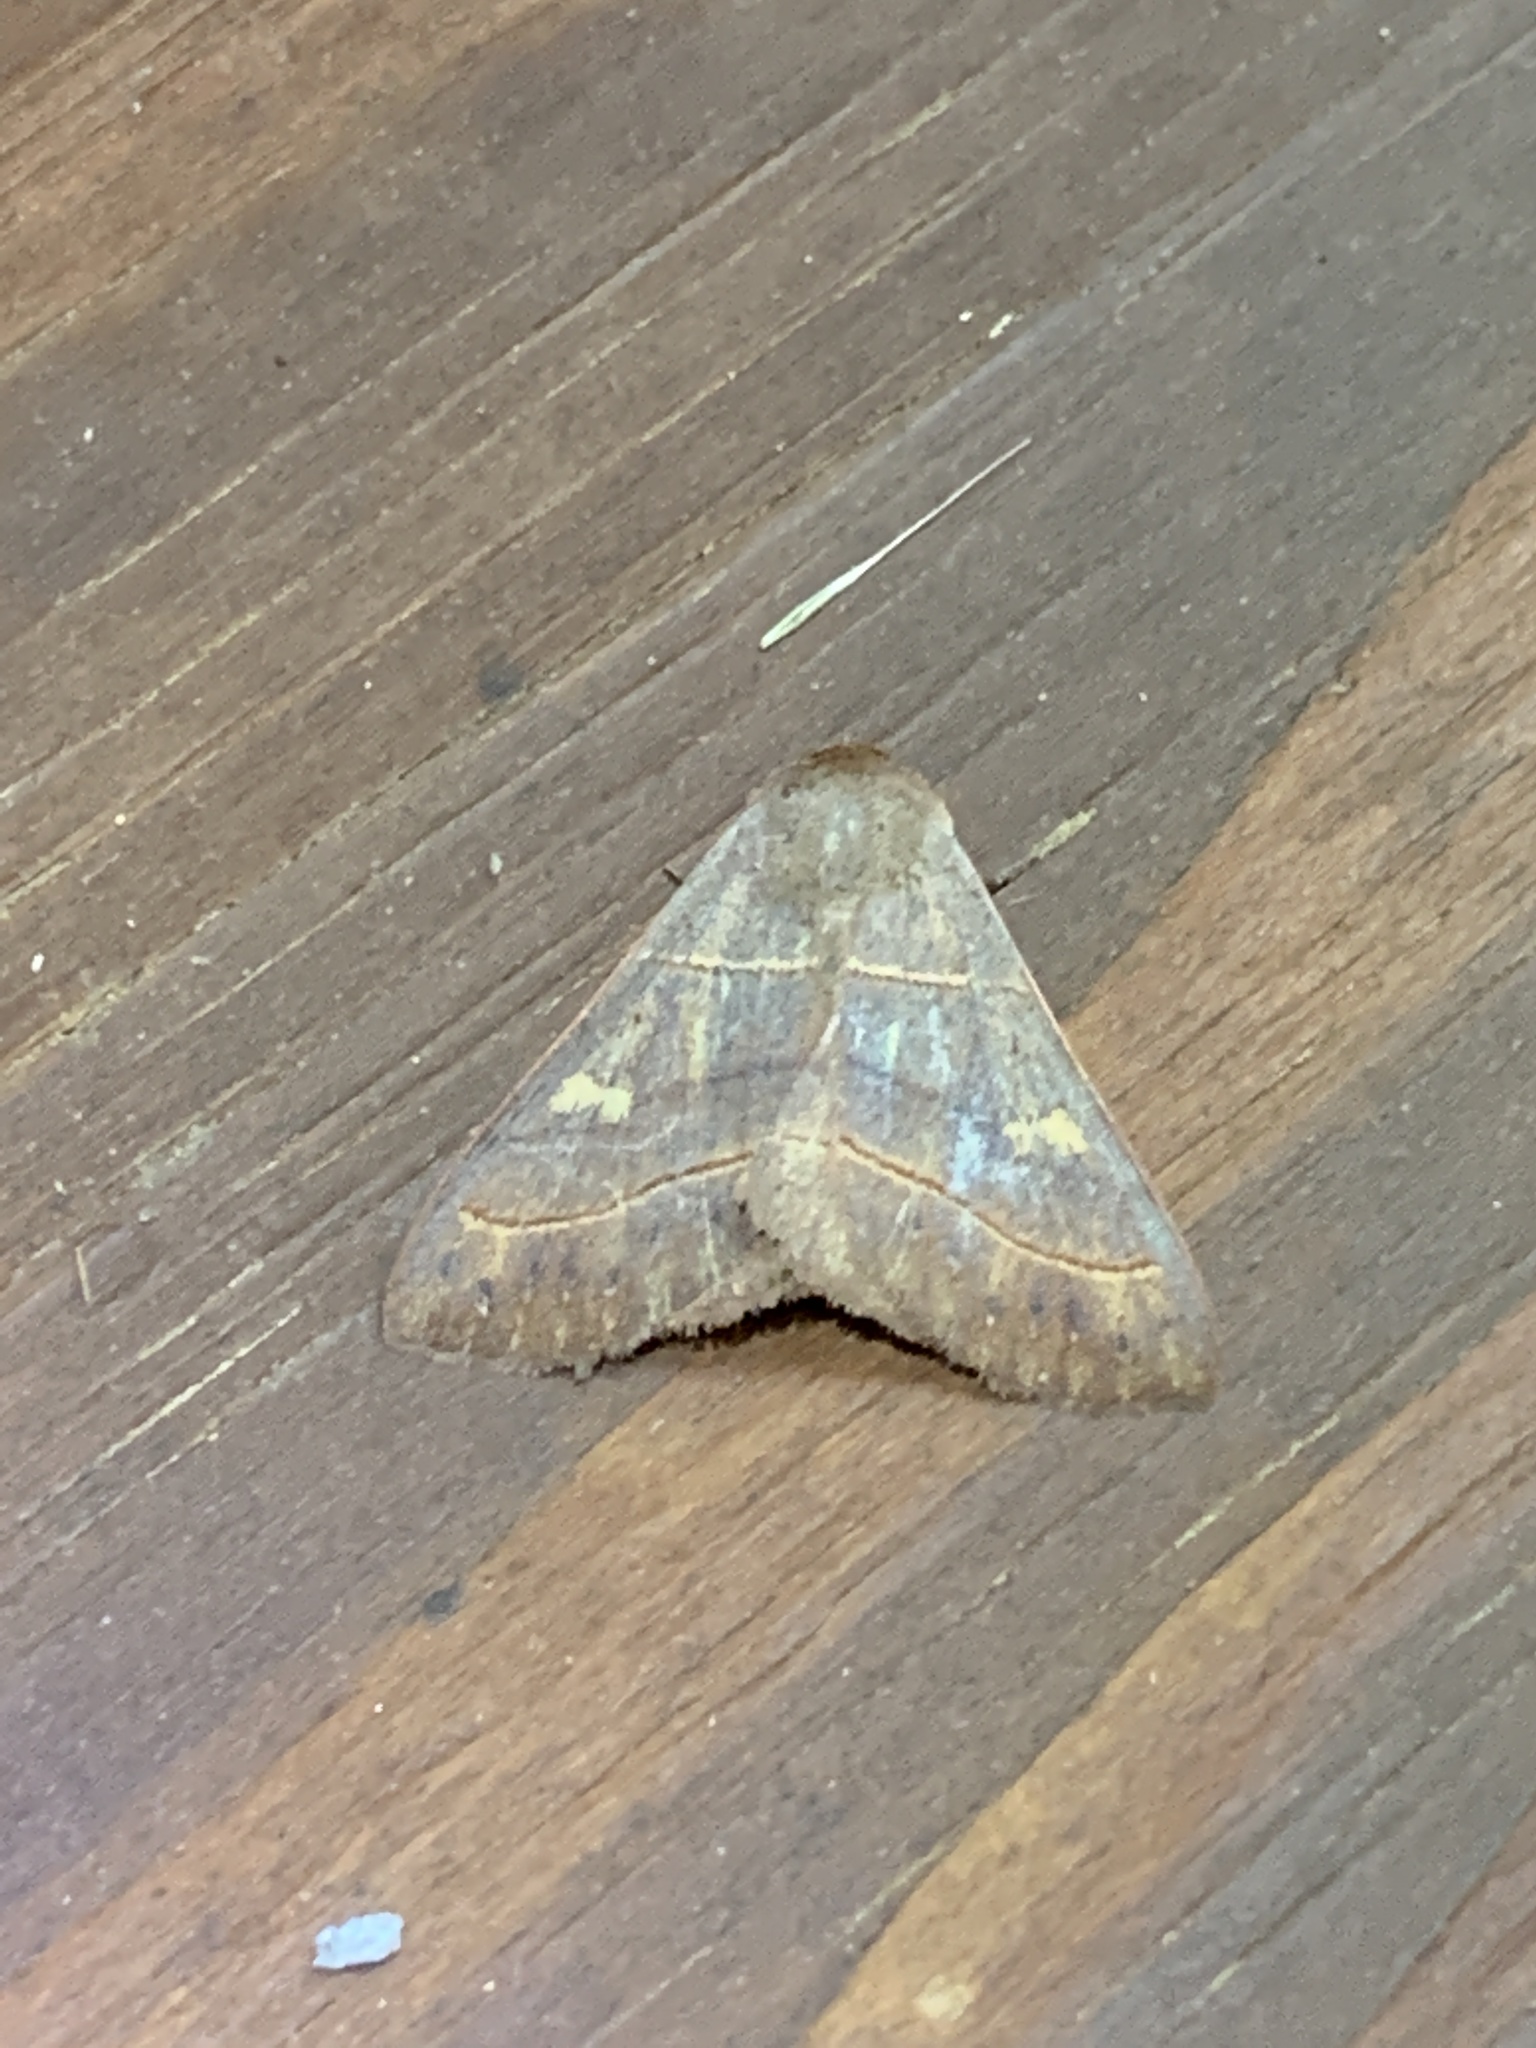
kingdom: Animalia
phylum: Arthropoda
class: Insecta
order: Lepidoptera
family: Erebidae
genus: Panopoda
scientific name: Panopoda rufimargo
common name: Red-lined panopoda moth
